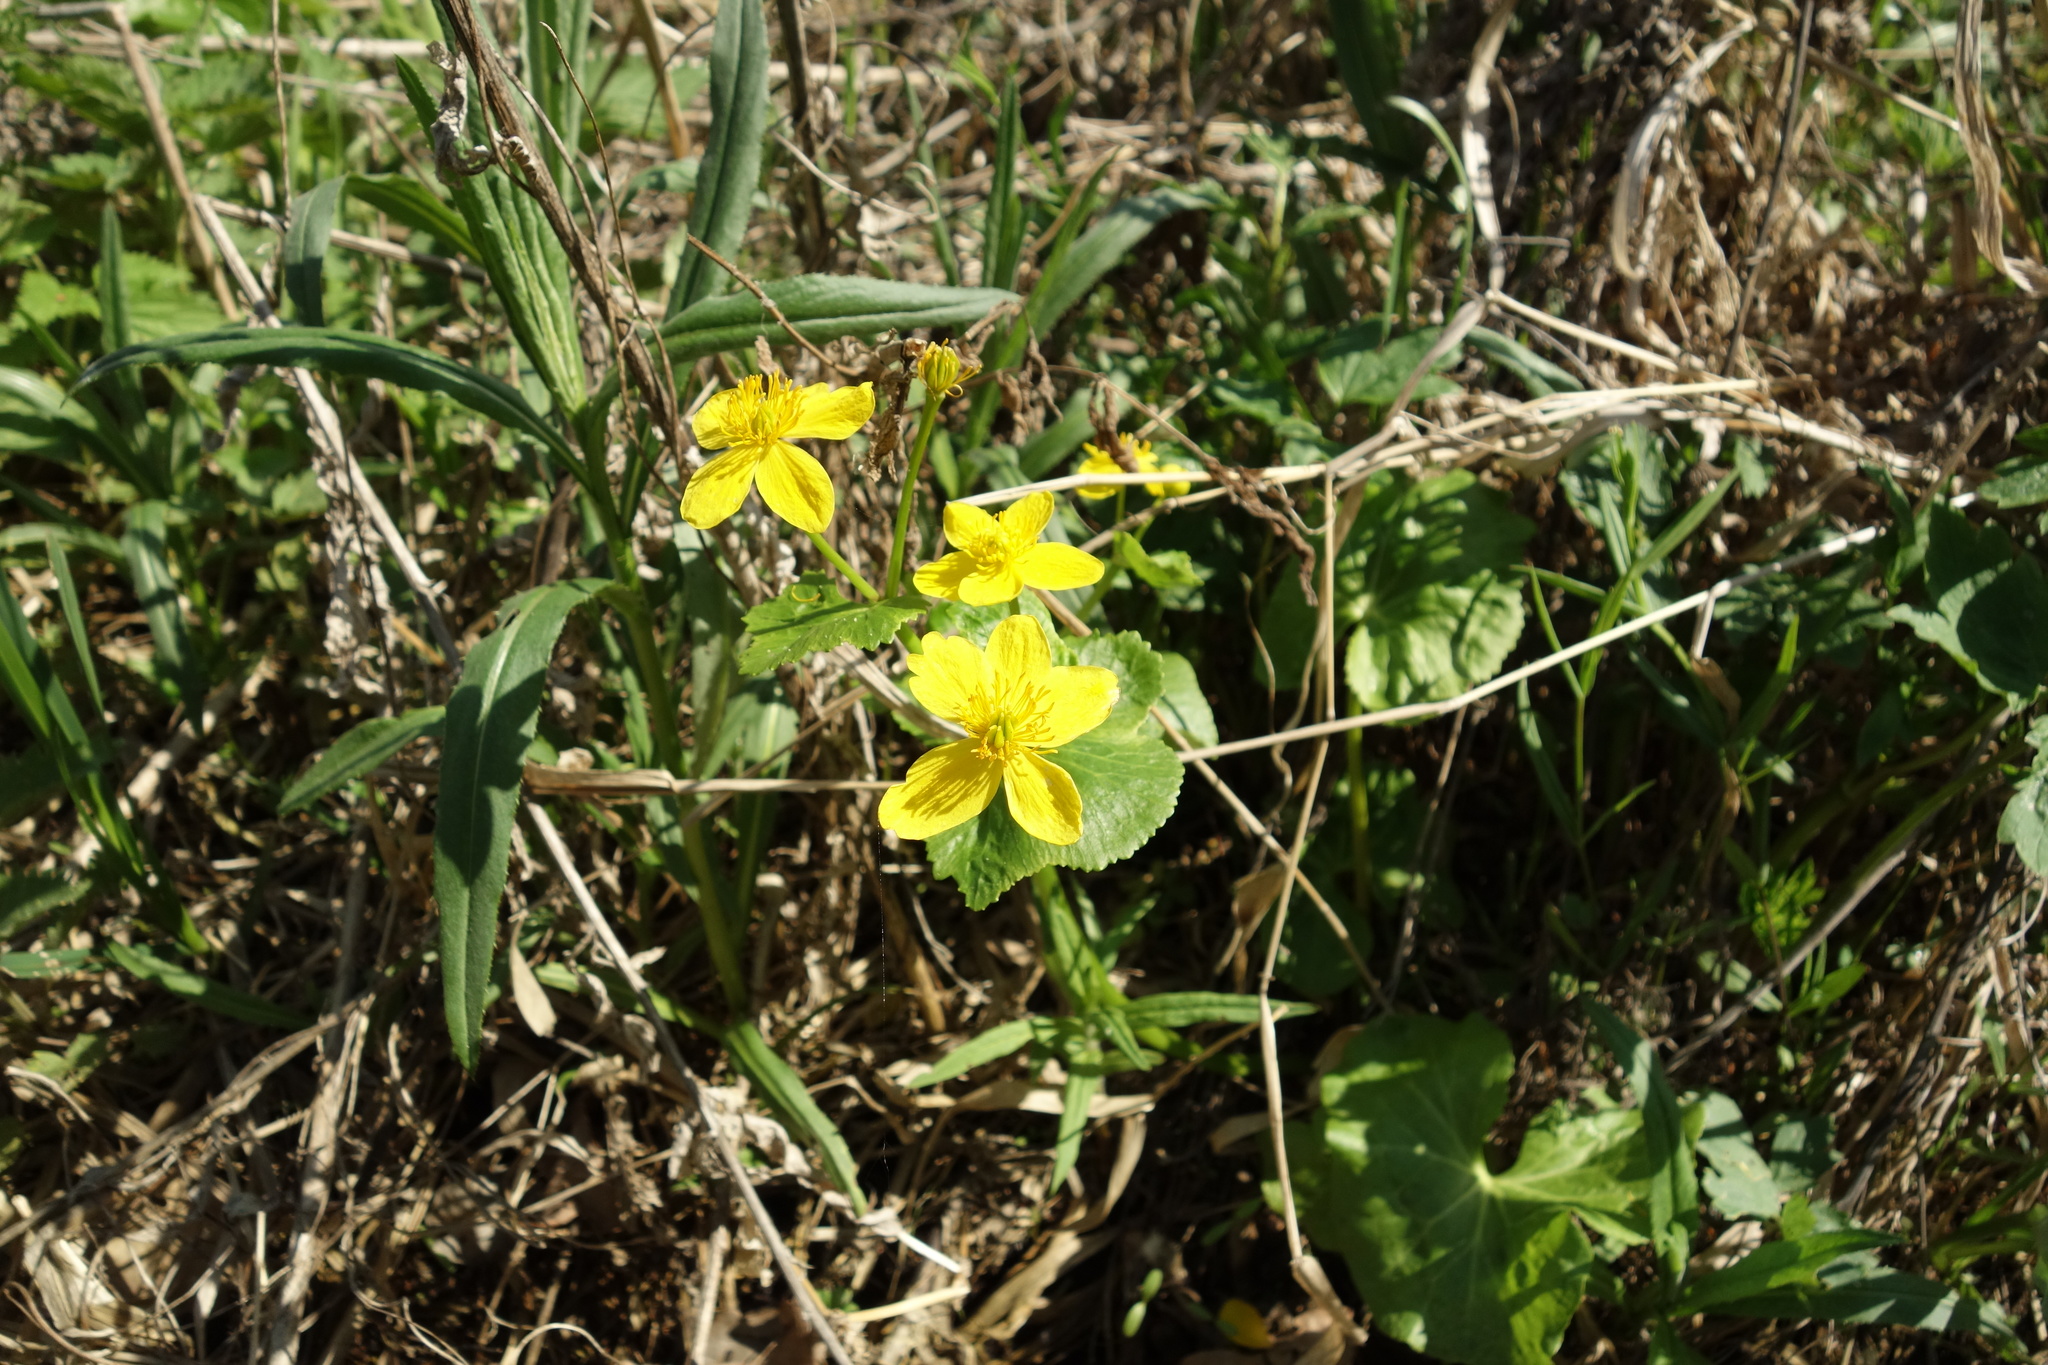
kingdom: Plantae
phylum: Tracheophyta
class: Magnoliopsida
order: Ranunculales
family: Ranunculaceae
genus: Caltha
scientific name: Caltha palustris
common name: Marsh marigold
